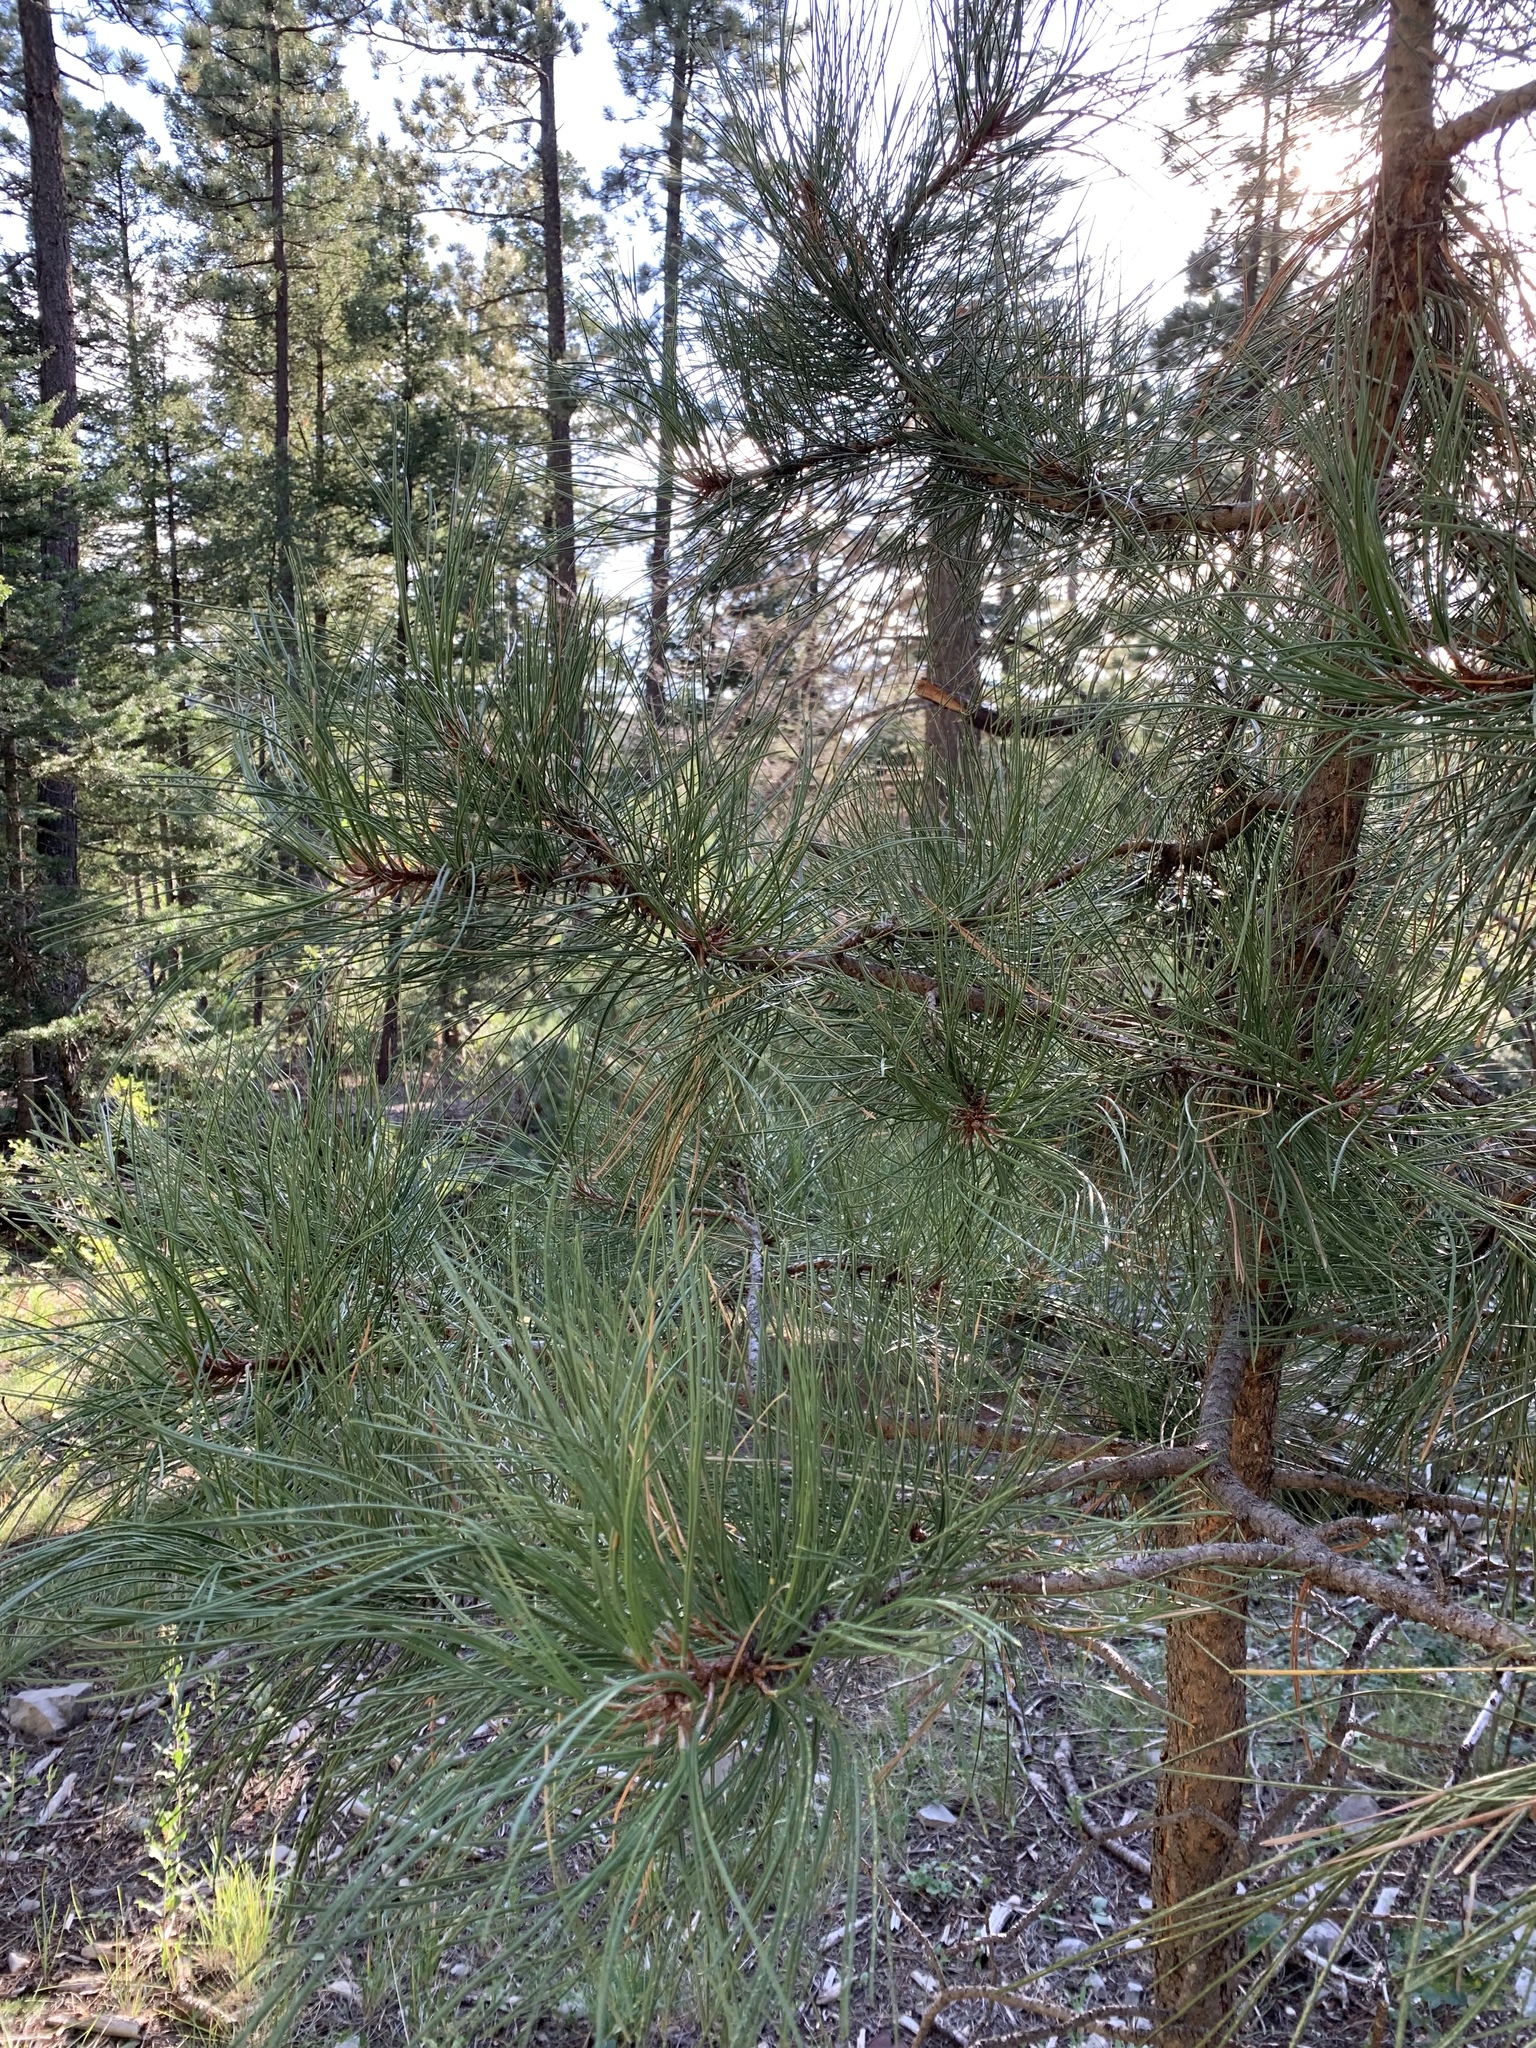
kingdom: Plantae
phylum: Tracheophyta
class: Pinopsida
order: Pinales
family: Pinaceae
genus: Pinus
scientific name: Pinus ponderosa
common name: Western yellow-pine
